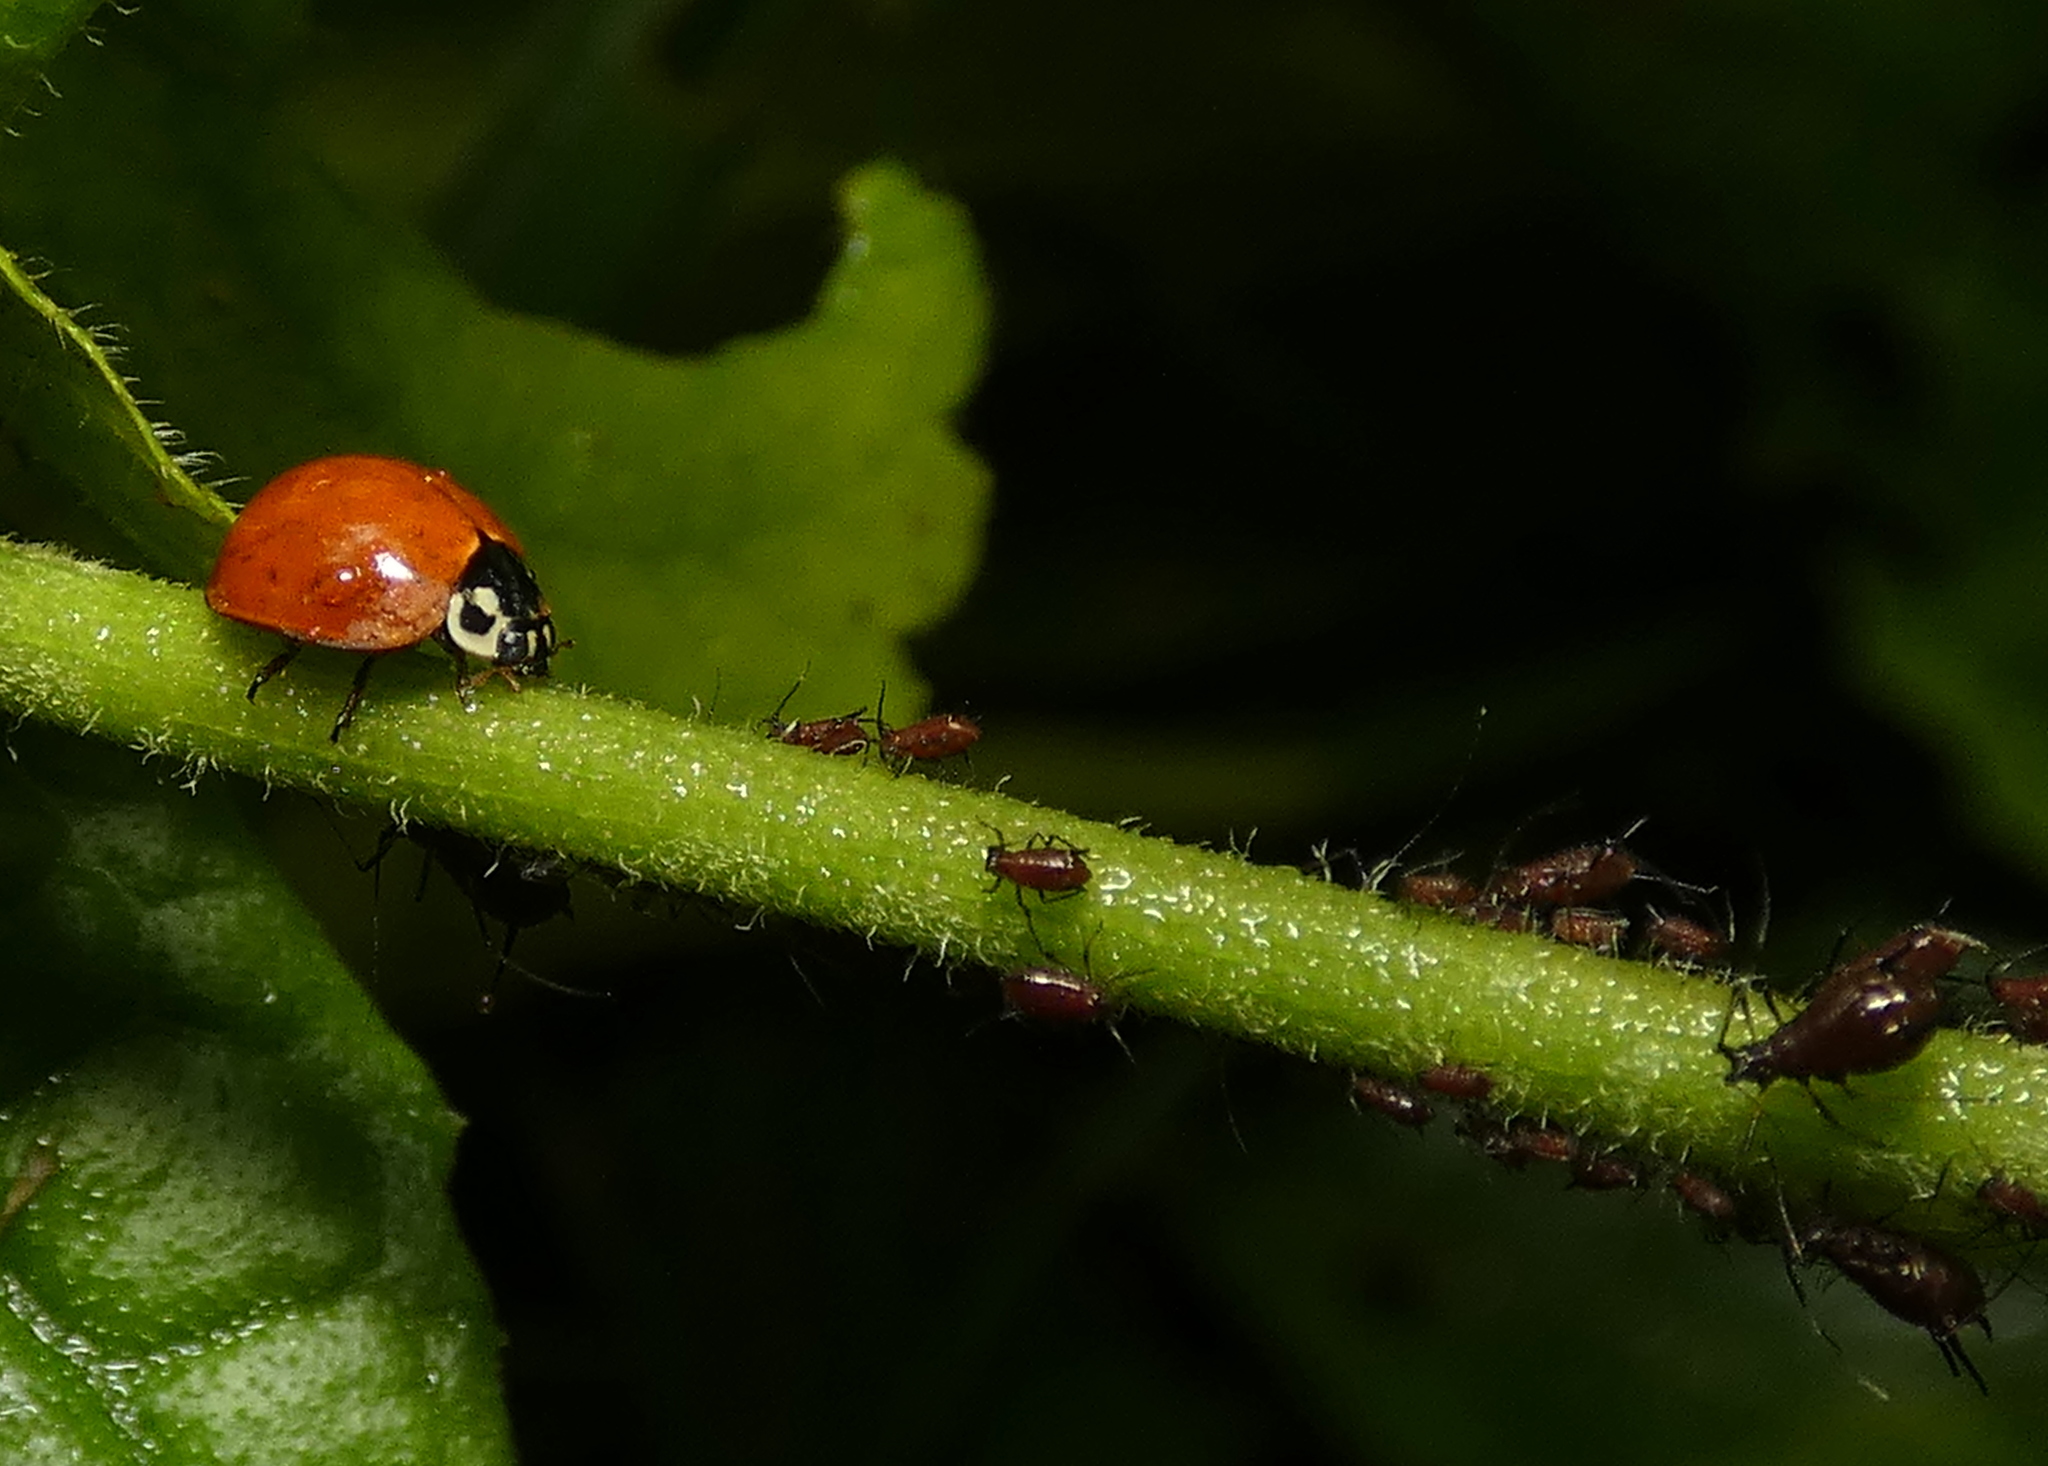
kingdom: Animalia
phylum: Arthropoda
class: Insecta
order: Coleoptera
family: Coccinellidae
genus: Cycloneda
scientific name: Cycloneda sanguinea
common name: Ladybird beetle
